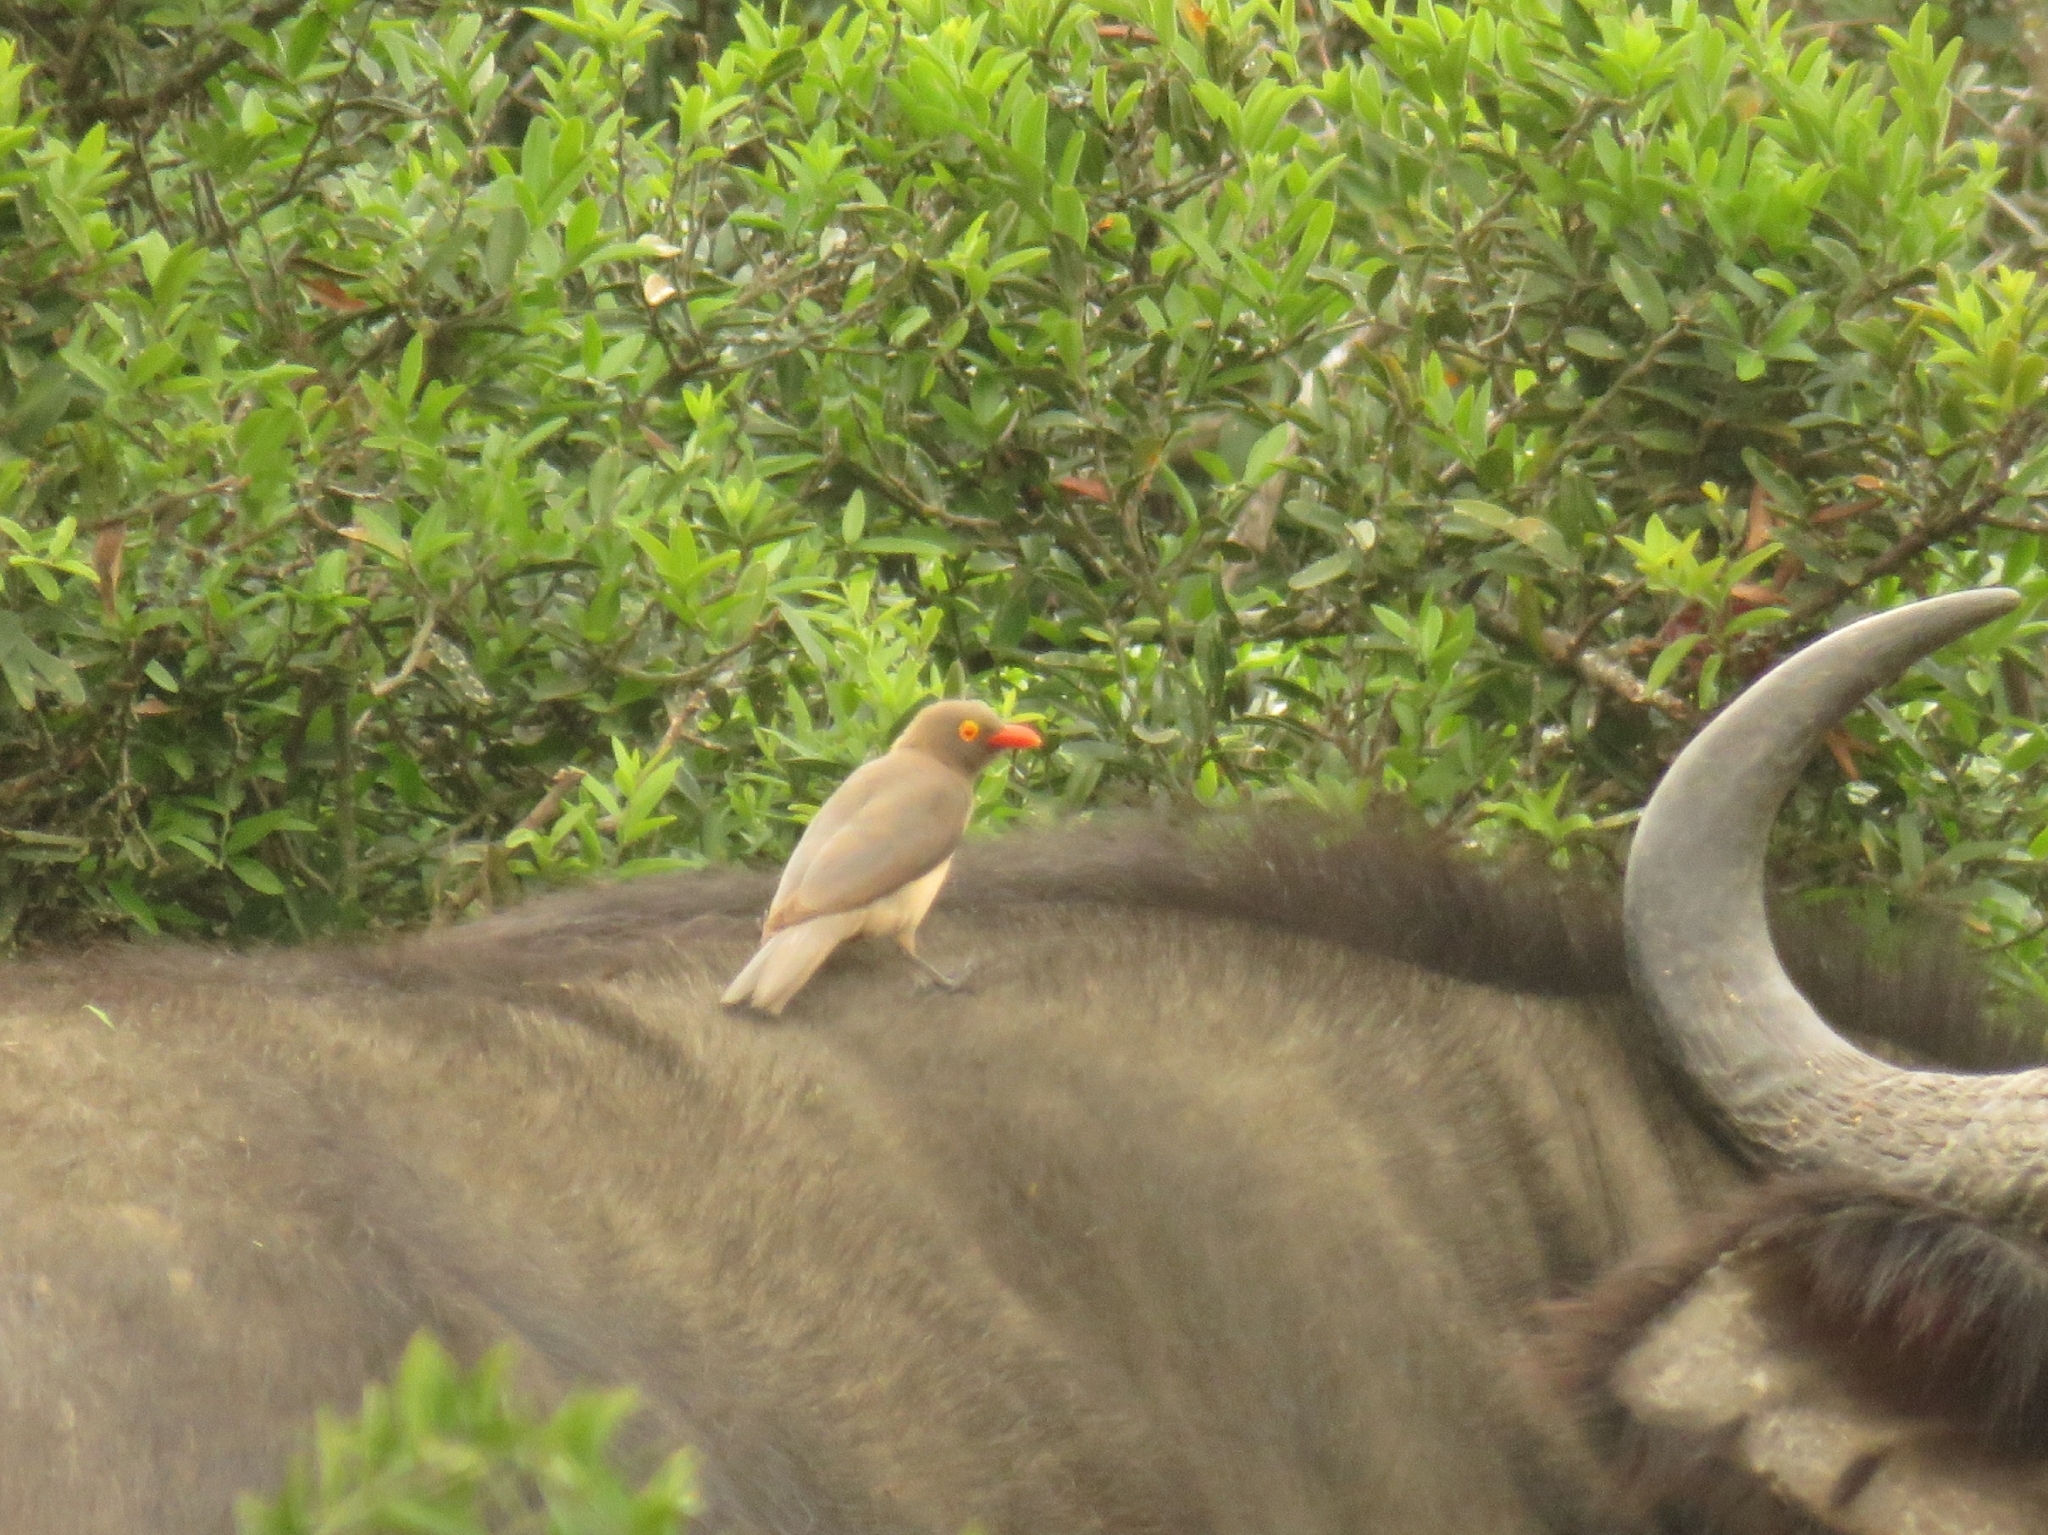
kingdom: Animalia
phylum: Chordata
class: Aves
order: Passeriformes
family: Buphagidae
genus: Buphagus
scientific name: Buphagus erythrorhynchus
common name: Red-billed oxpecker
